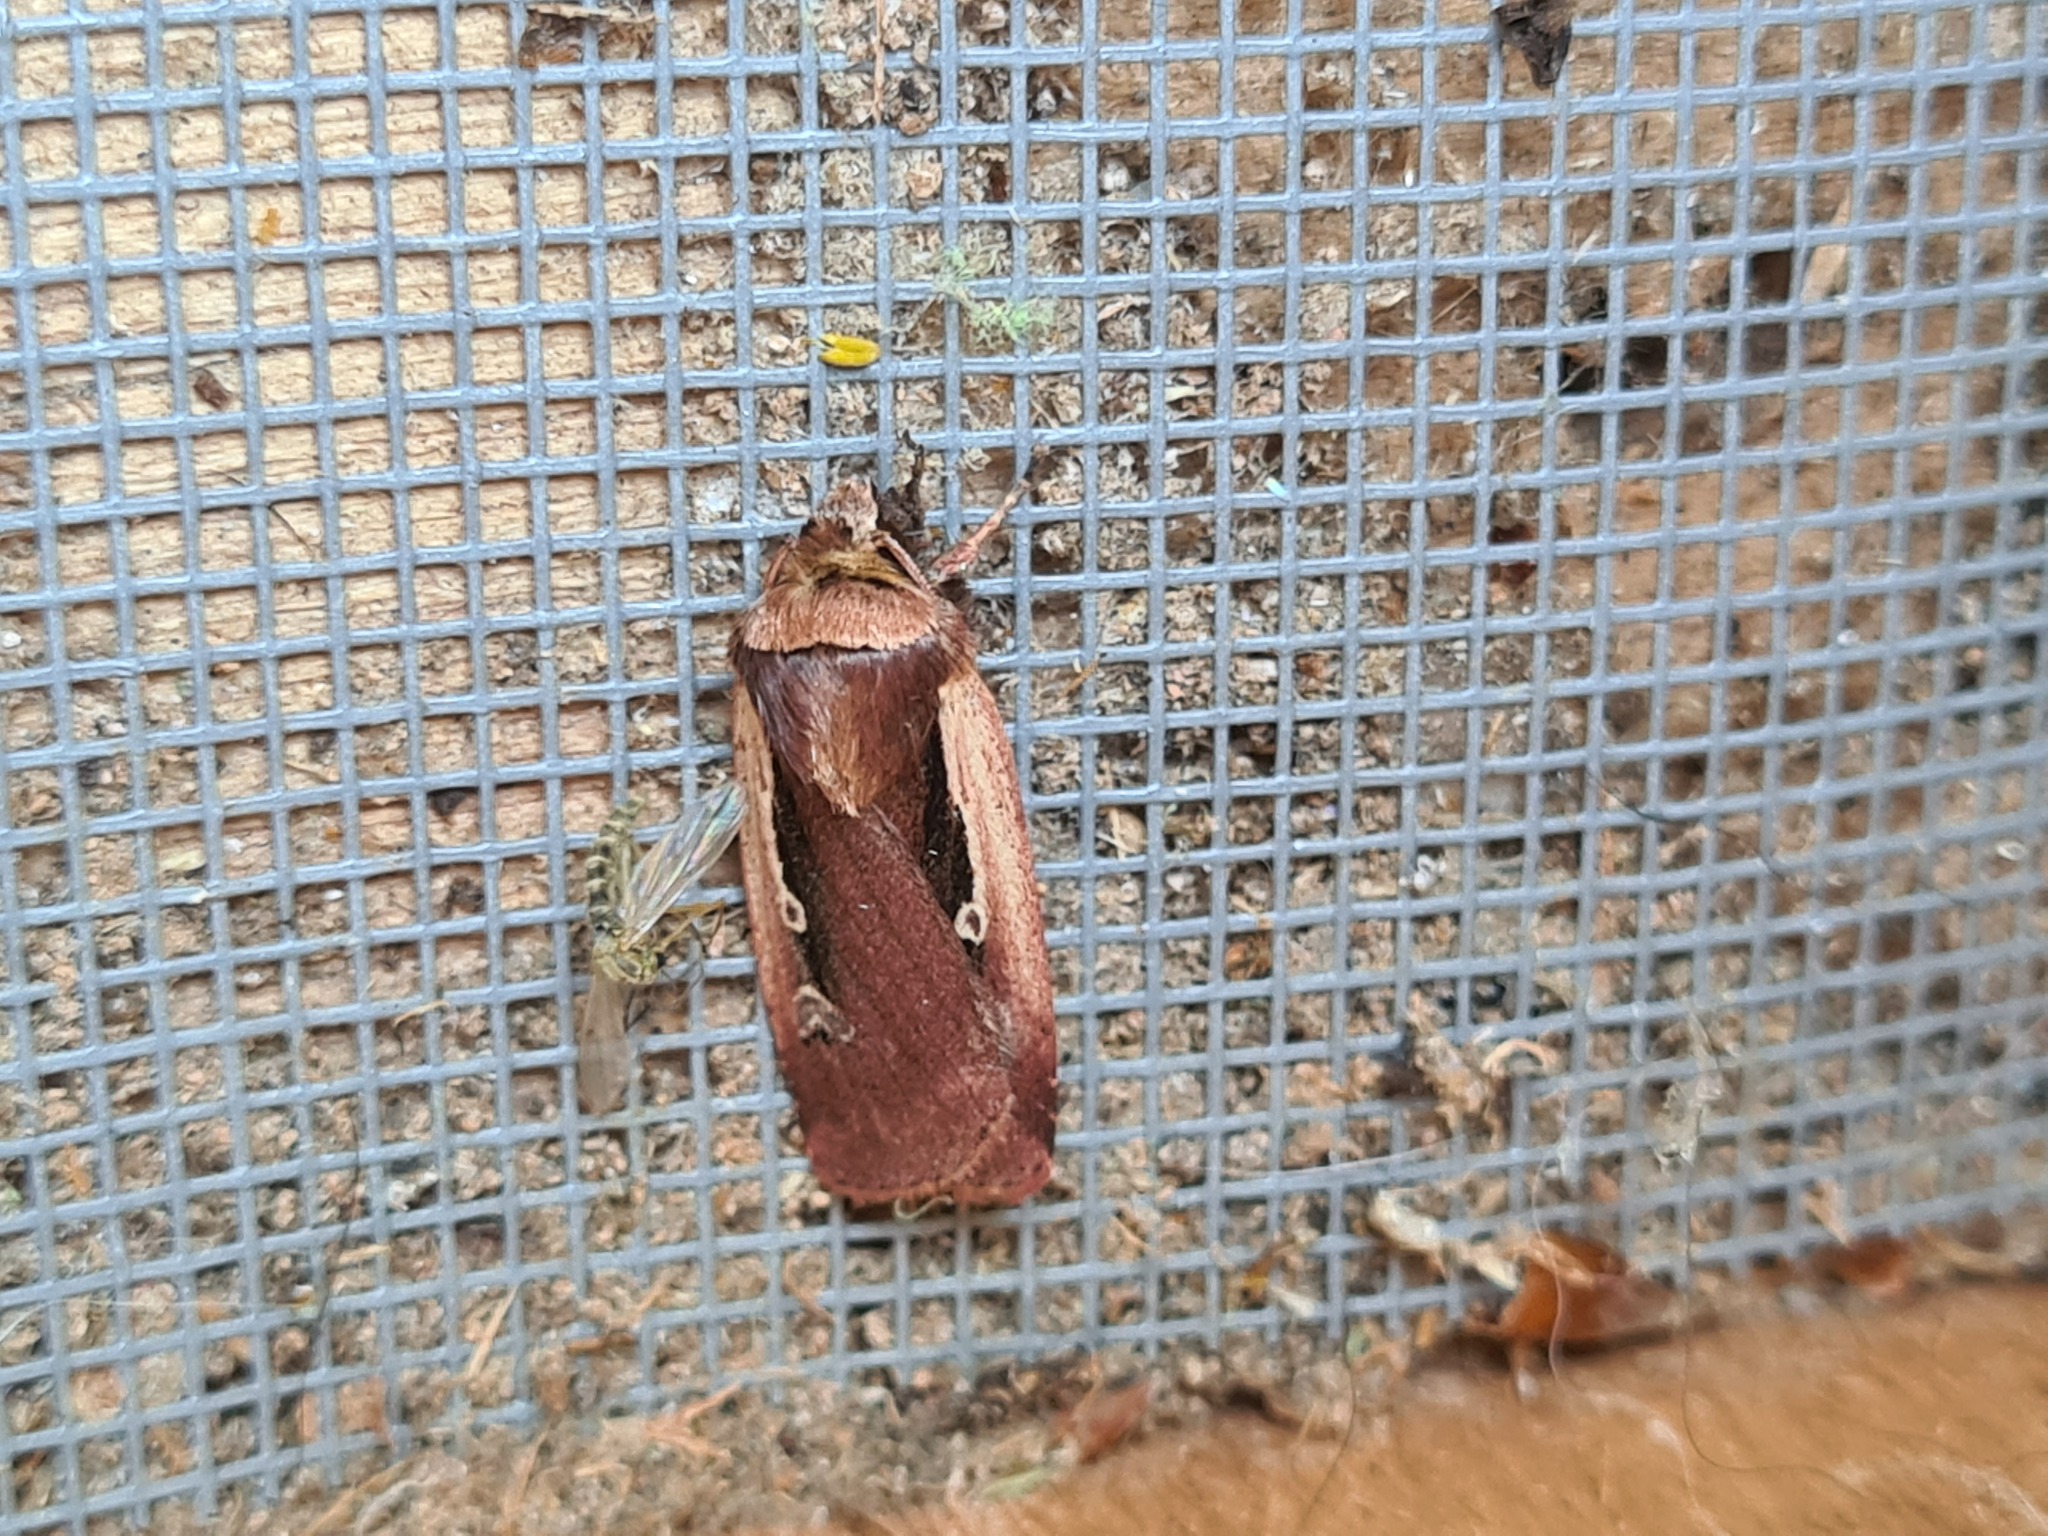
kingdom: Animalia
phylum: Arthropoda
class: Insecta
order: Lepidoptera
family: Noctuidae
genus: Ochropleura
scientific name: Ochropleura plecta
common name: Flame shoulder
